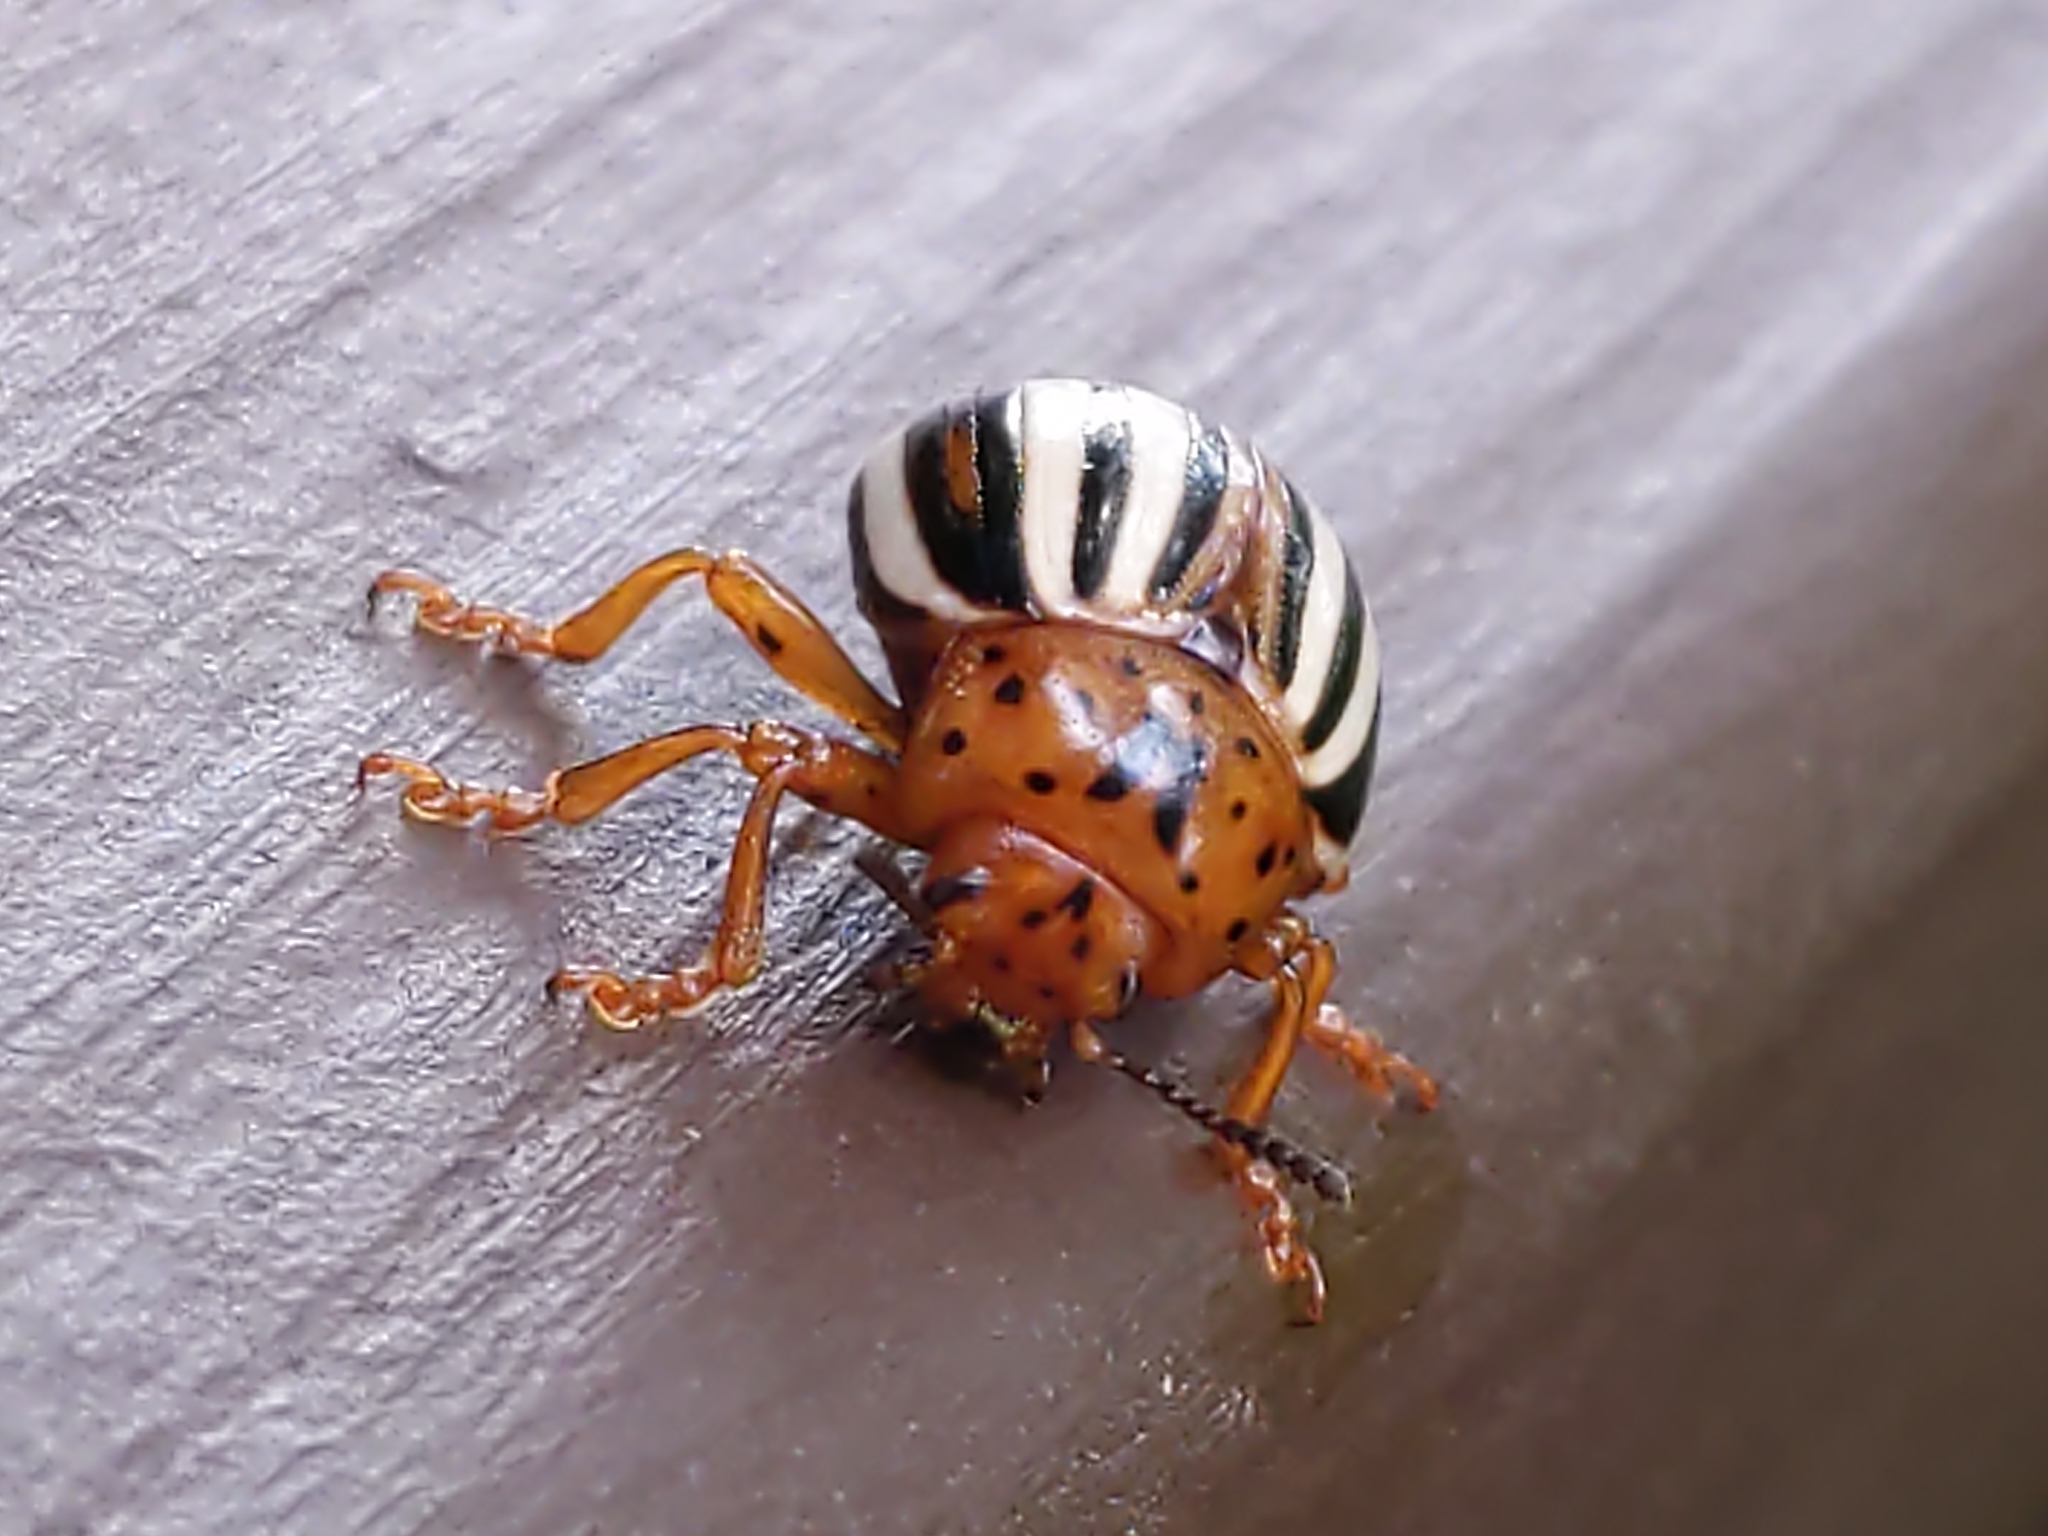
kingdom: Animalia
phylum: Arthropoda
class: Insecta
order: Coleoptera
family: Chrysomelidae
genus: Leptinotarsa
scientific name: Leptinotarsa juncta
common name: False potato beetle
